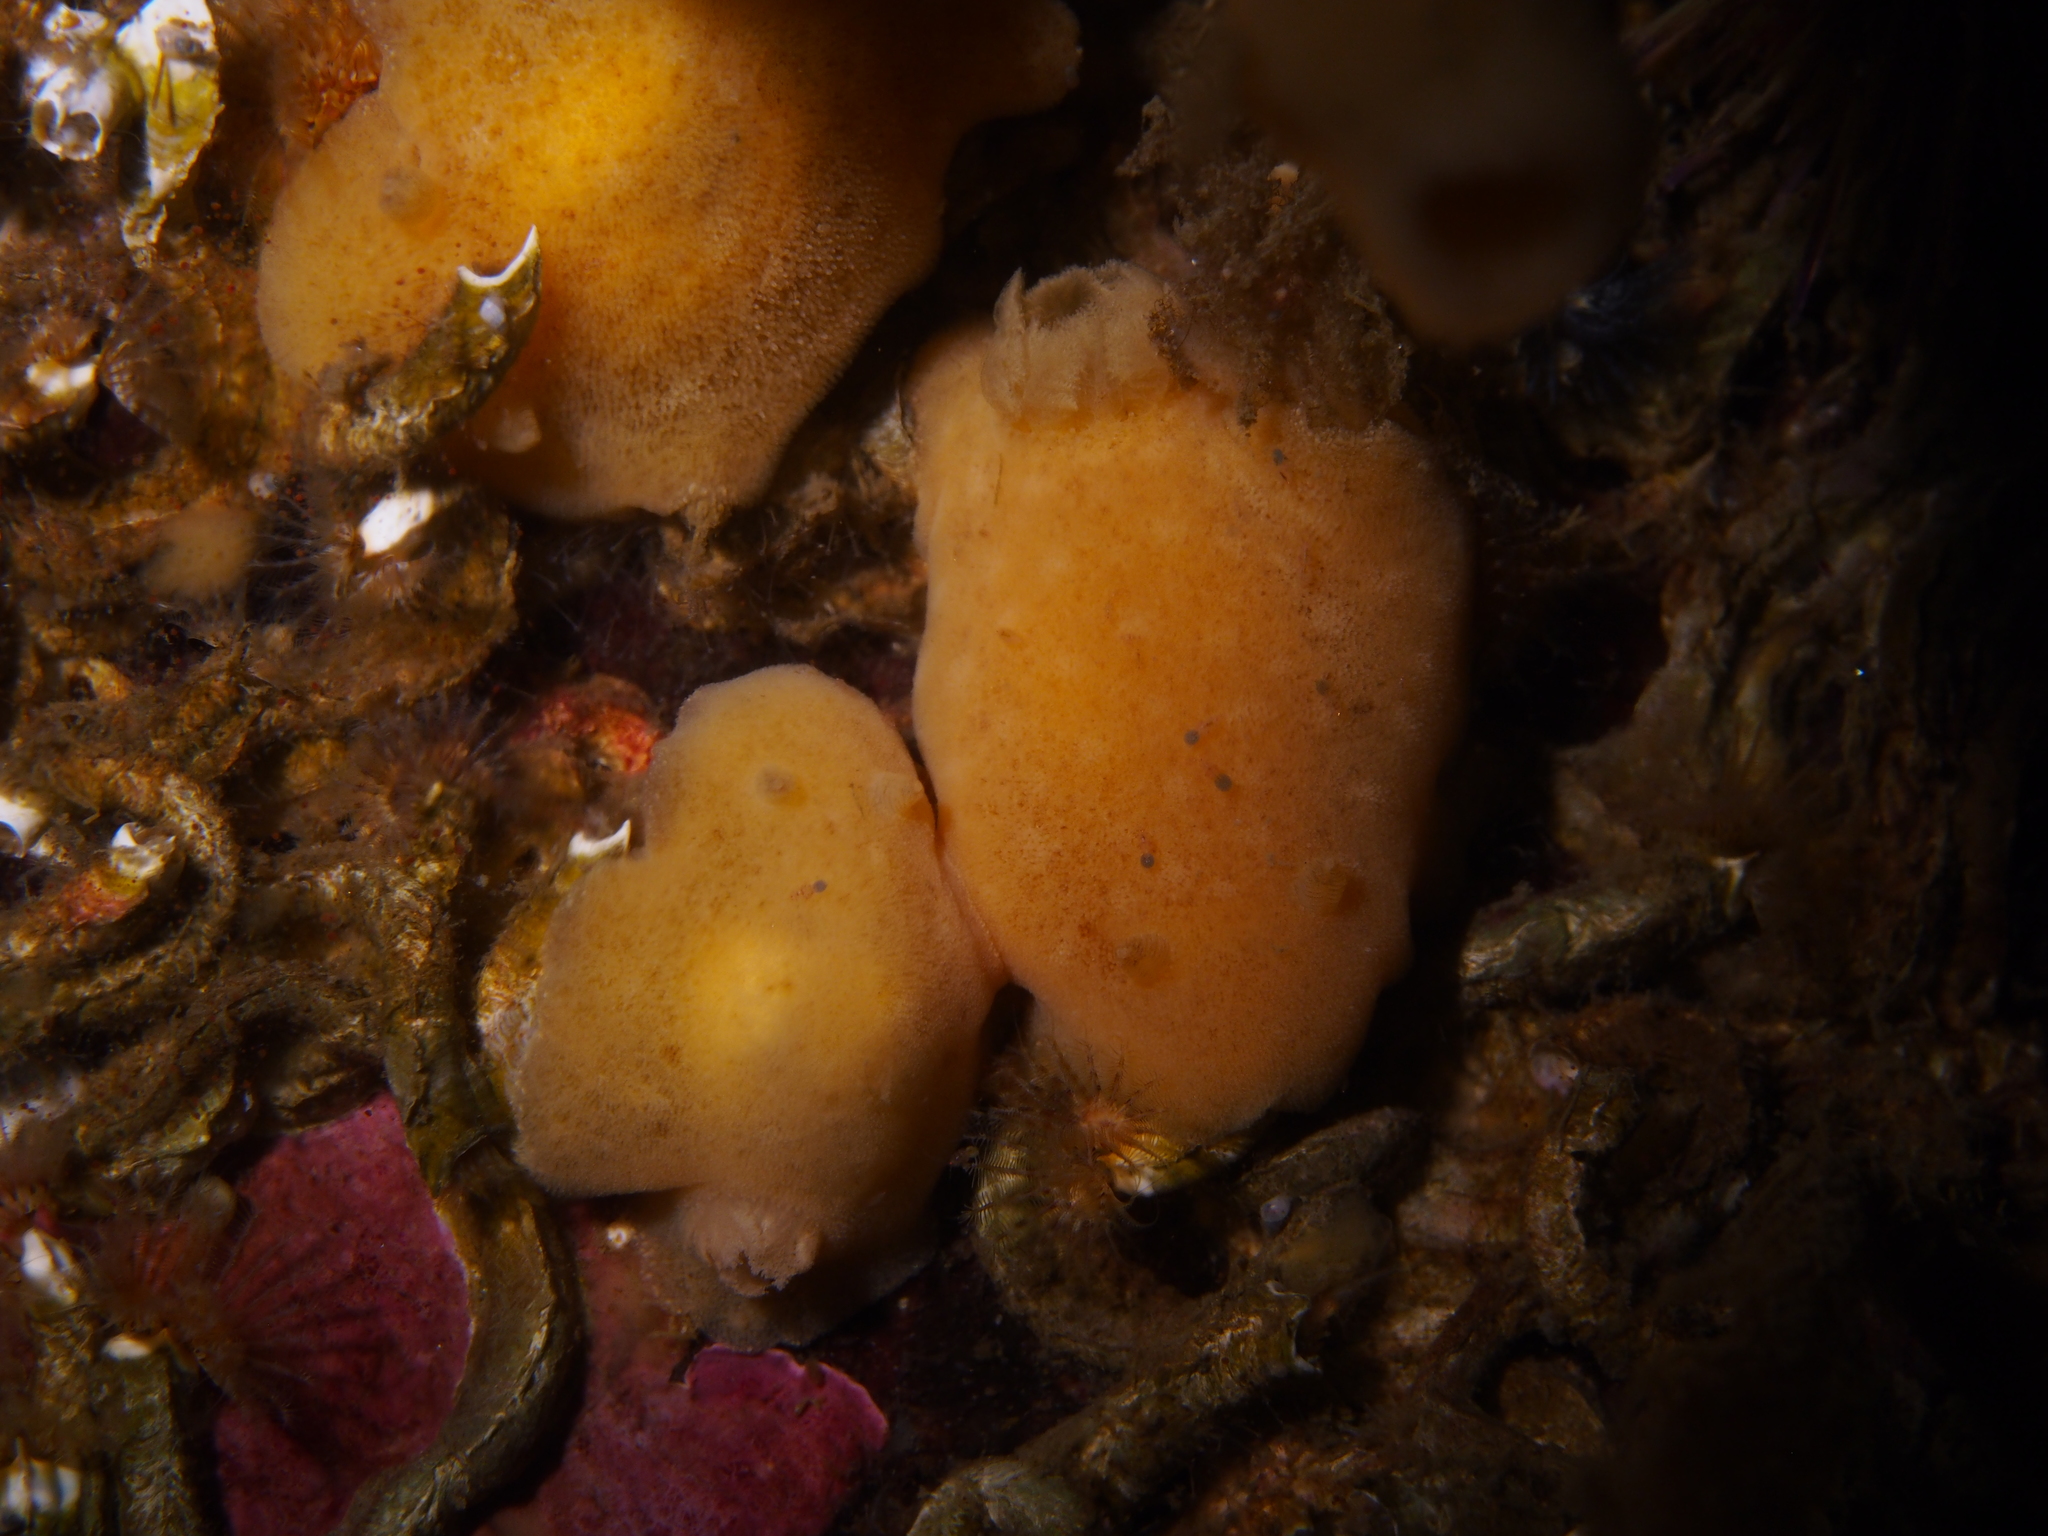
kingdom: Animalia
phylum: Mollusca
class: Gastropoda
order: Nudibranchia
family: Discodorididae
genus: Jorunna
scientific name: Jorunna tomentosa
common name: Grey sea slug
